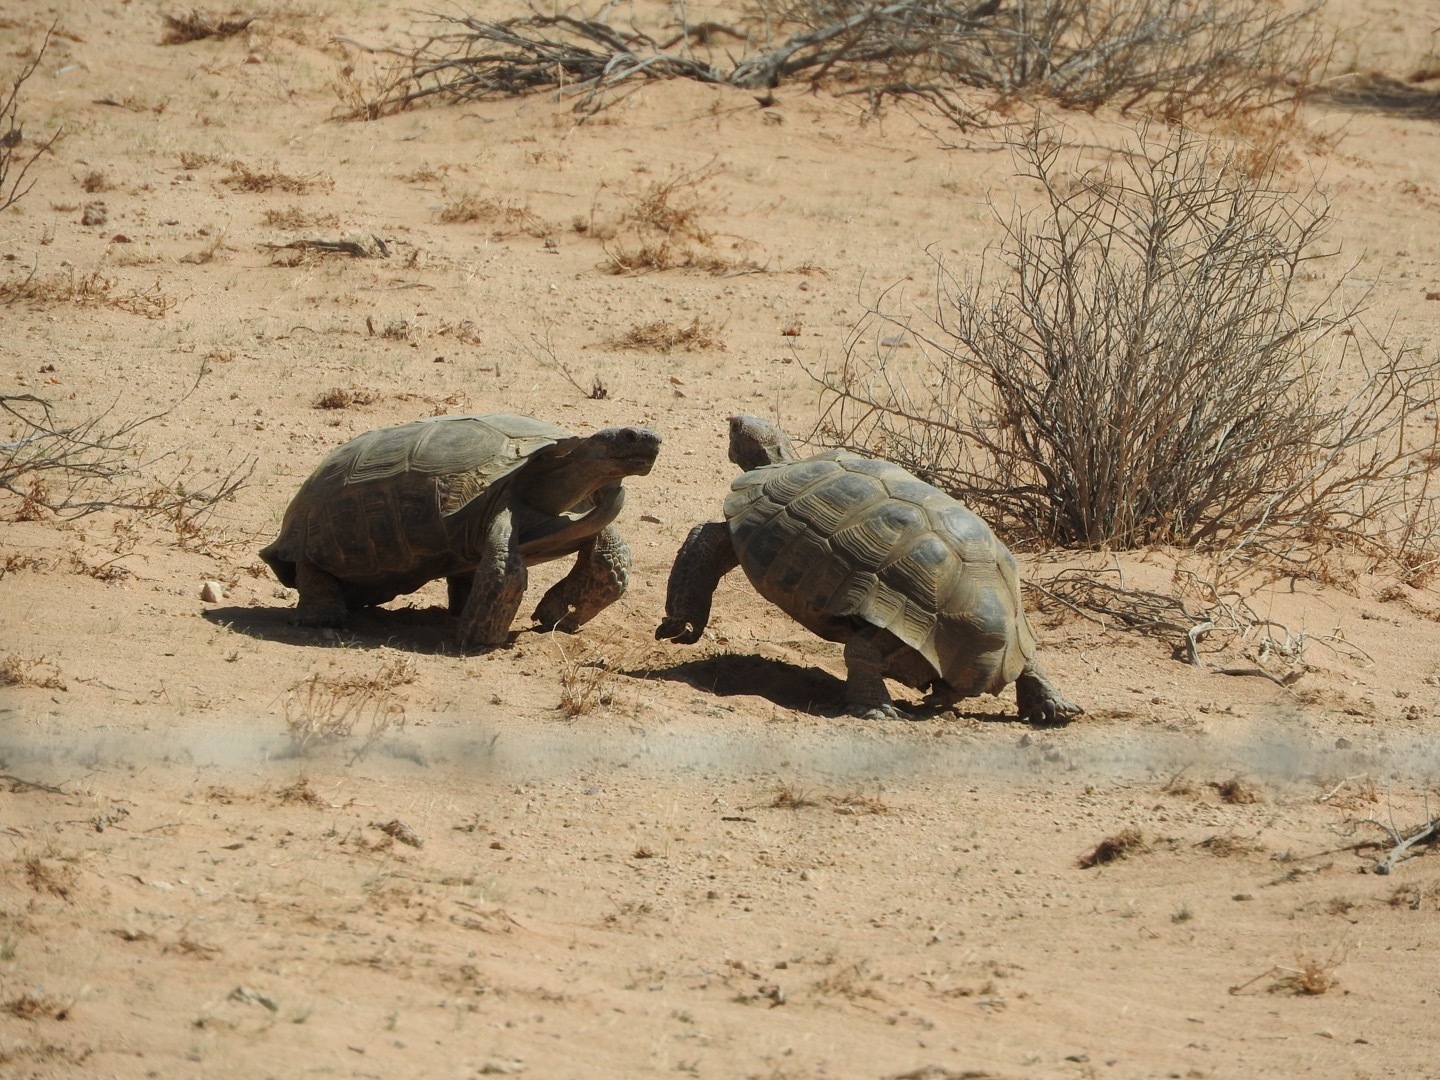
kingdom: Animalia
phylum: Chordata
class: Testudines
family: Testudinidae
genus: Gopherus
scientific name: Gopherus agassizii
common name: Mojave desert tortoise
